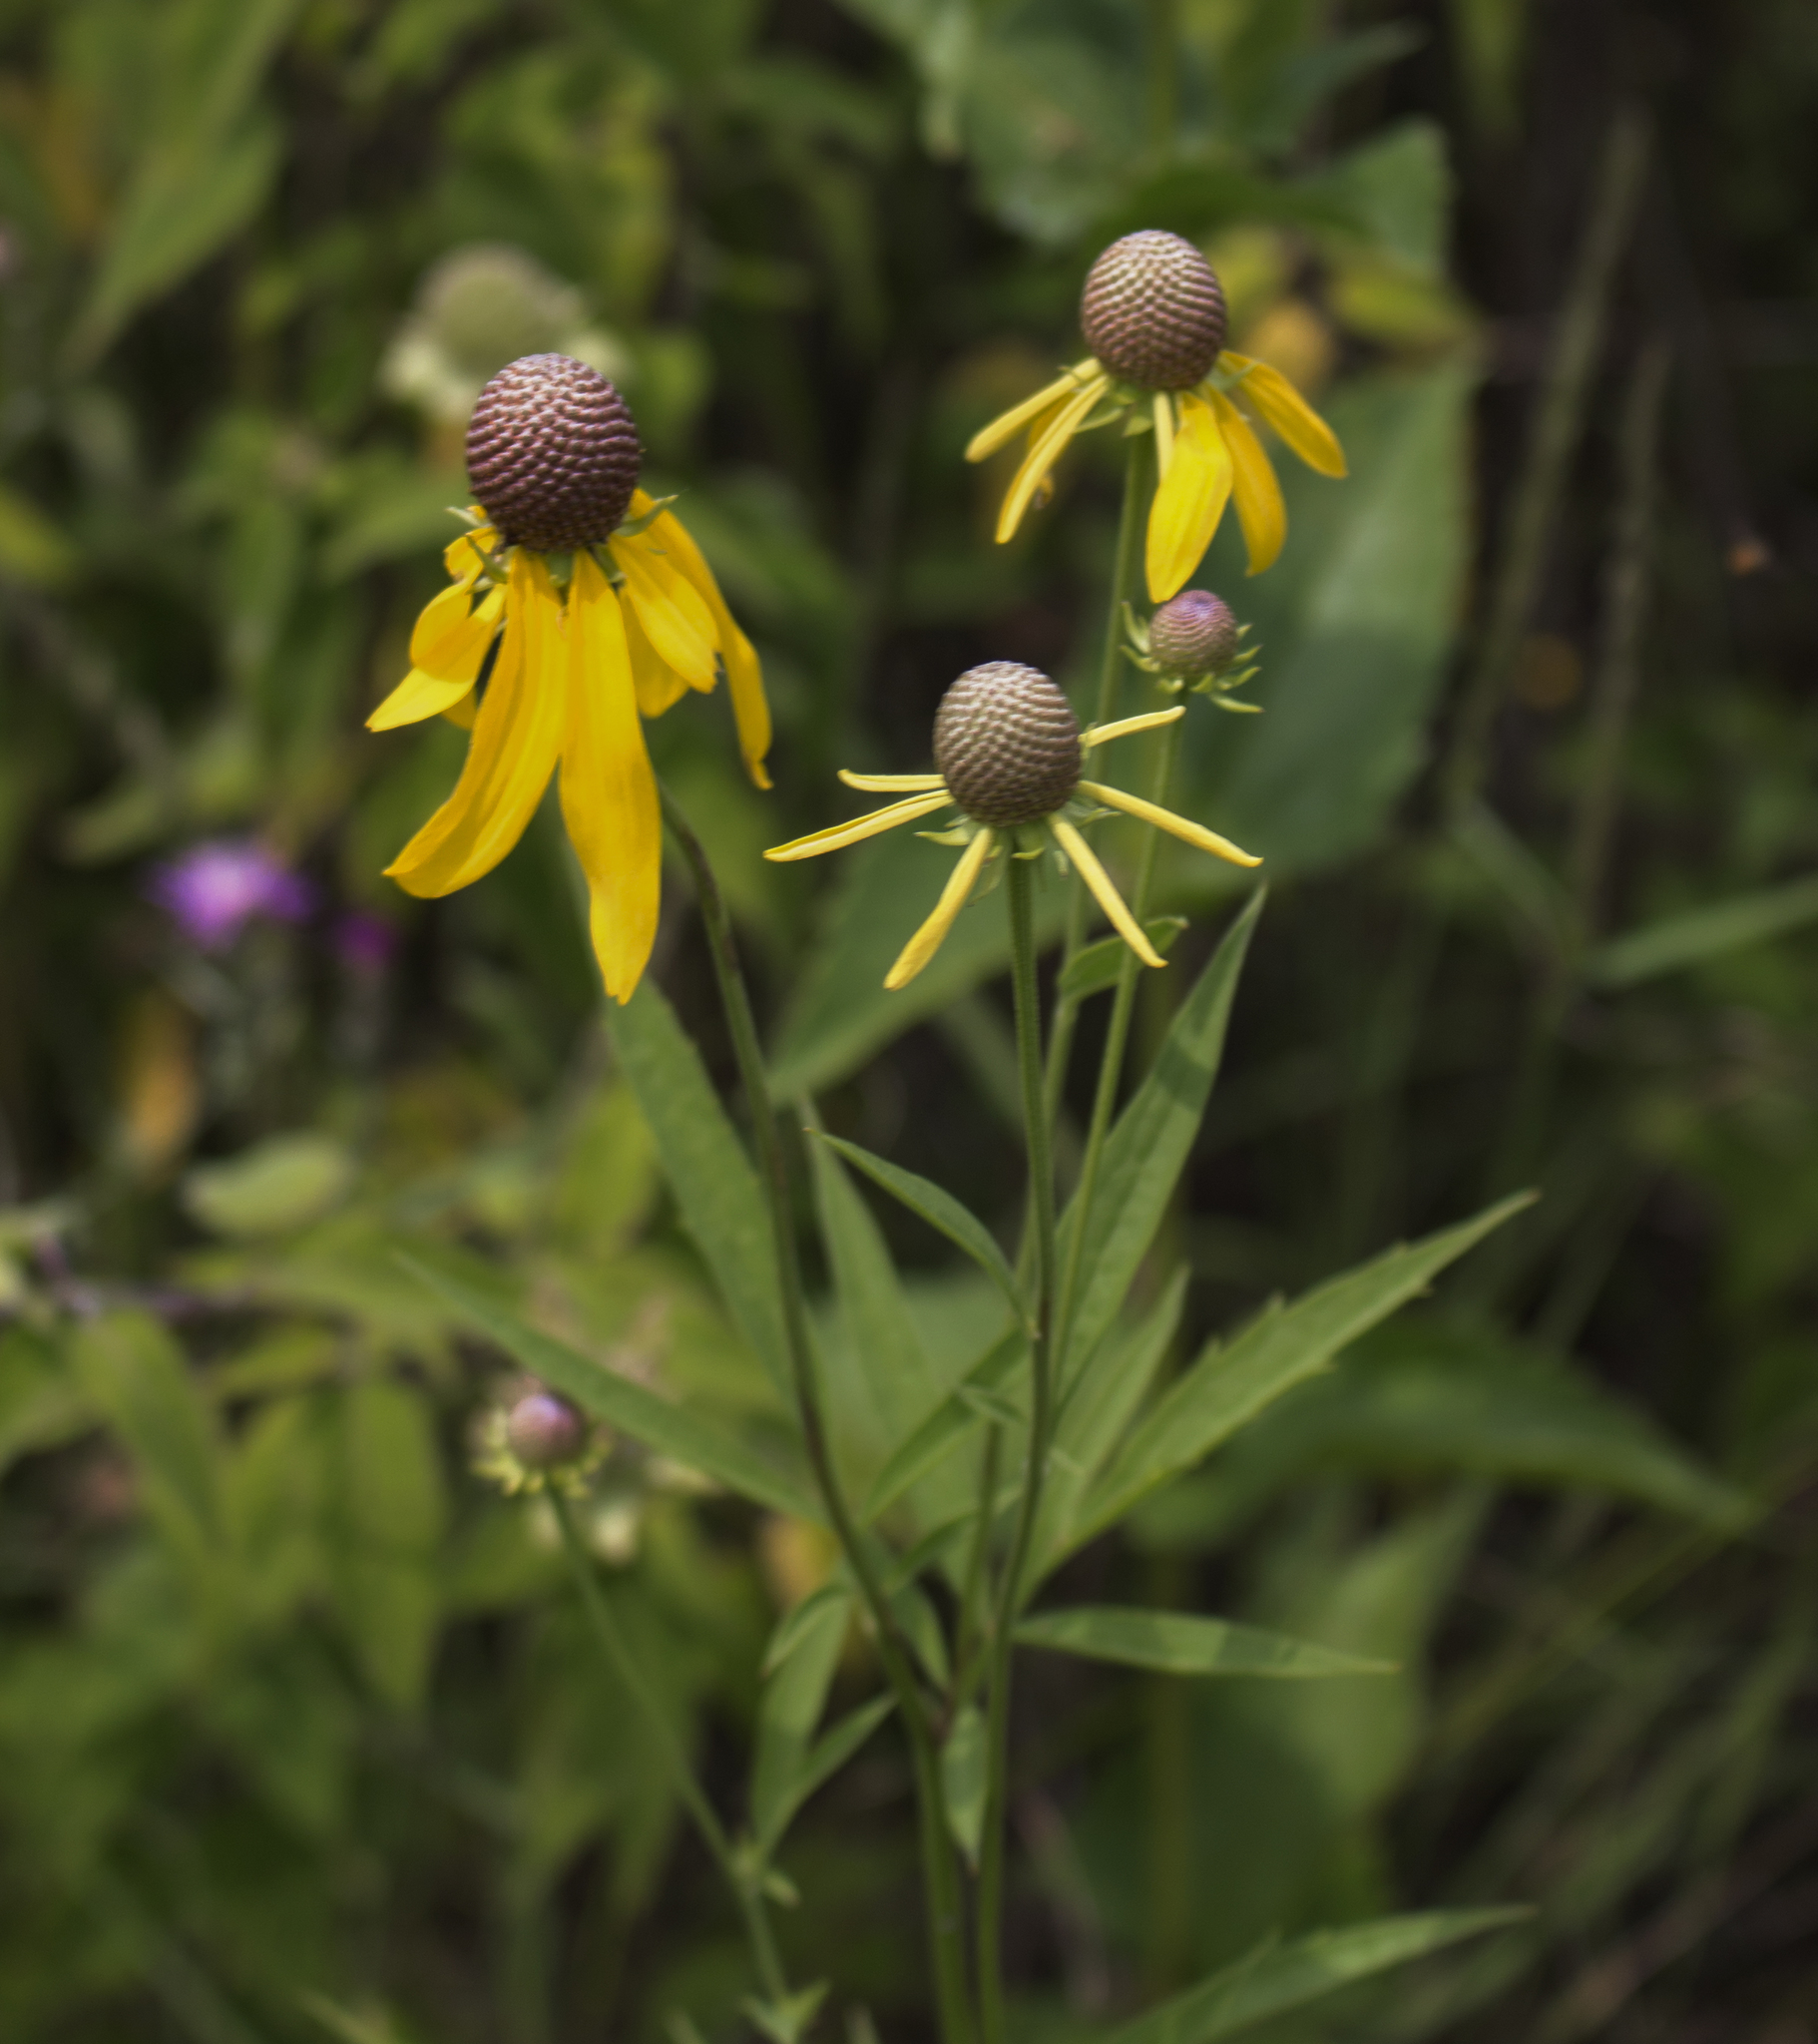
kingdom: Plantae
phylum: Tracheophyta
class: Magnoliopsida
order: Asterales
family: Asteraceae
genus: Ratibida
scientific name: Ratibida pinnata
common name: Drooping prairie-coneflower
